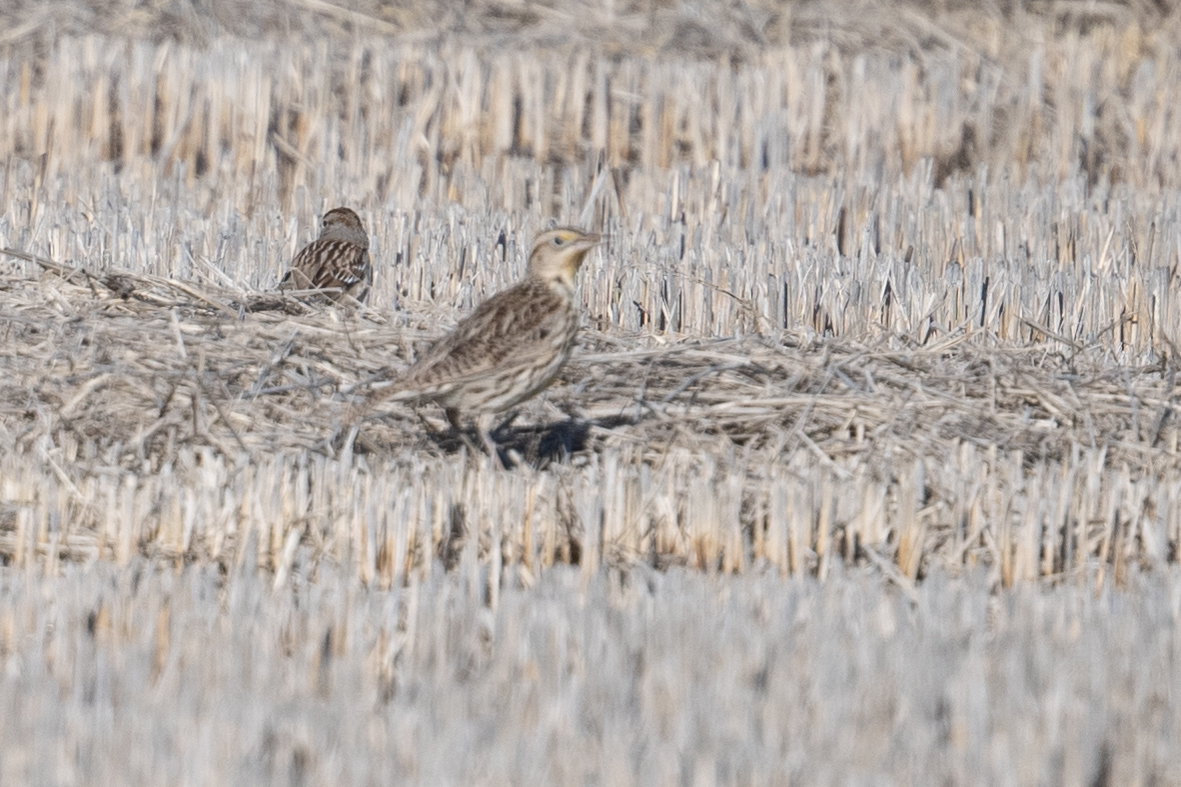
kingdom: Animalia
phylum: Chordata
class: Aves
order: Passeriformes
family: Icteridae
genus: Sturnella
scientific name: Sturnella neglecta
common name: Western meadowlark
